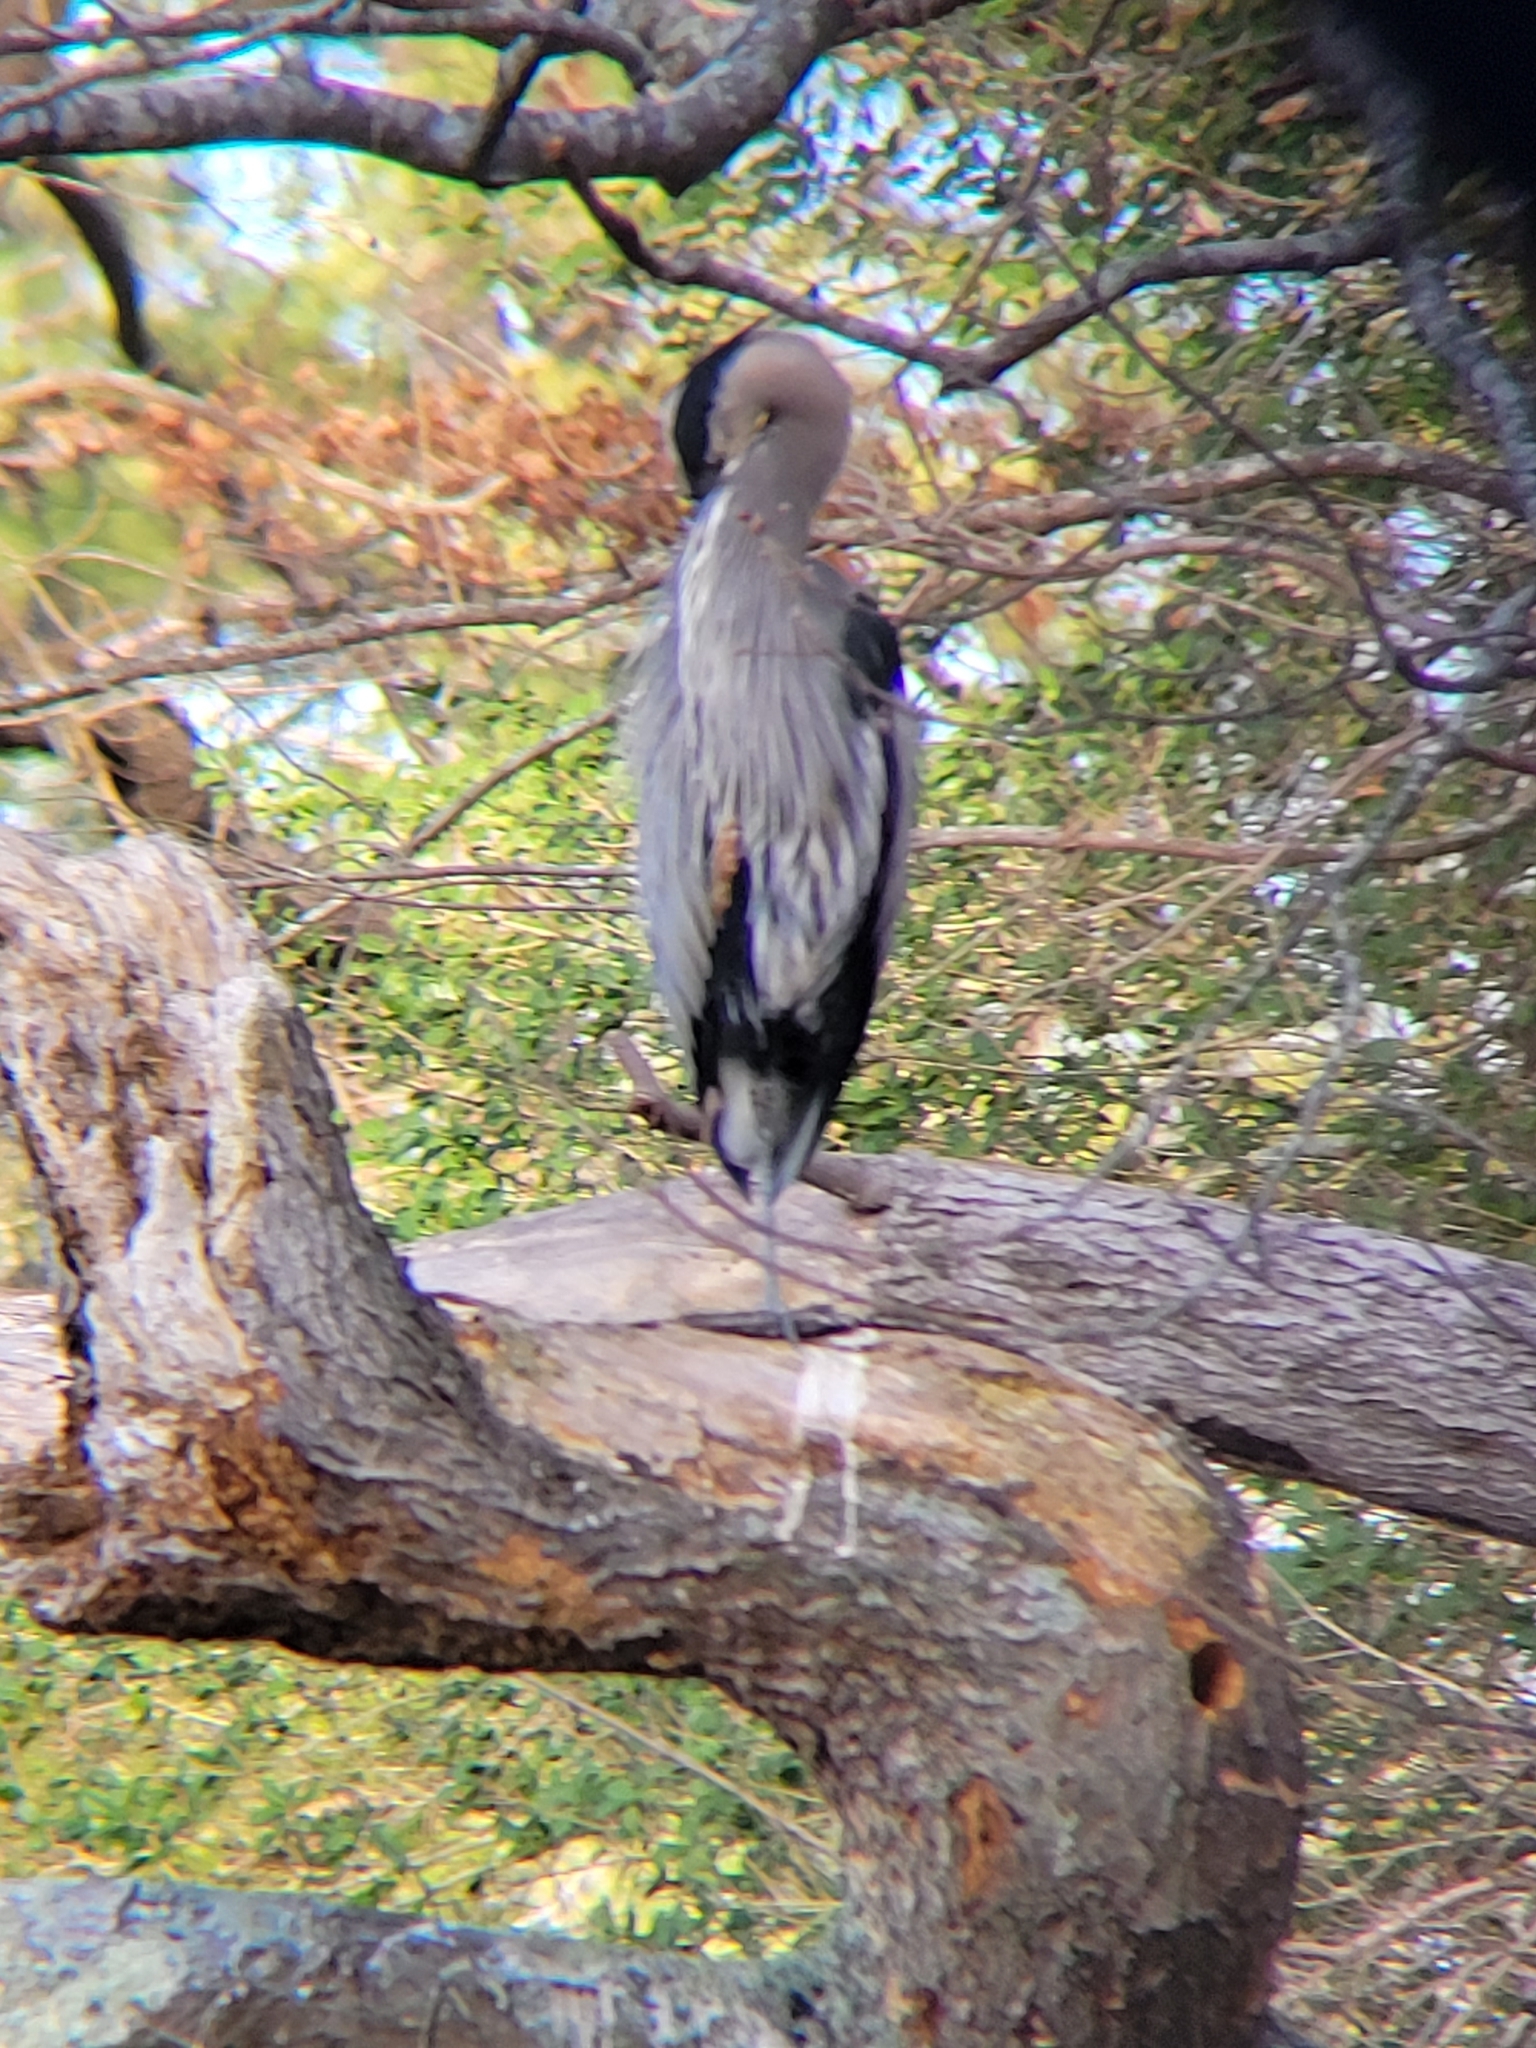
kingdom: Animalia
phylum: Chordata
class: Aves
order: Pelecaniformes
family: Ardeidae
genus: Ardea
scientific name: Ardea herodias
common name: Great blue heron
